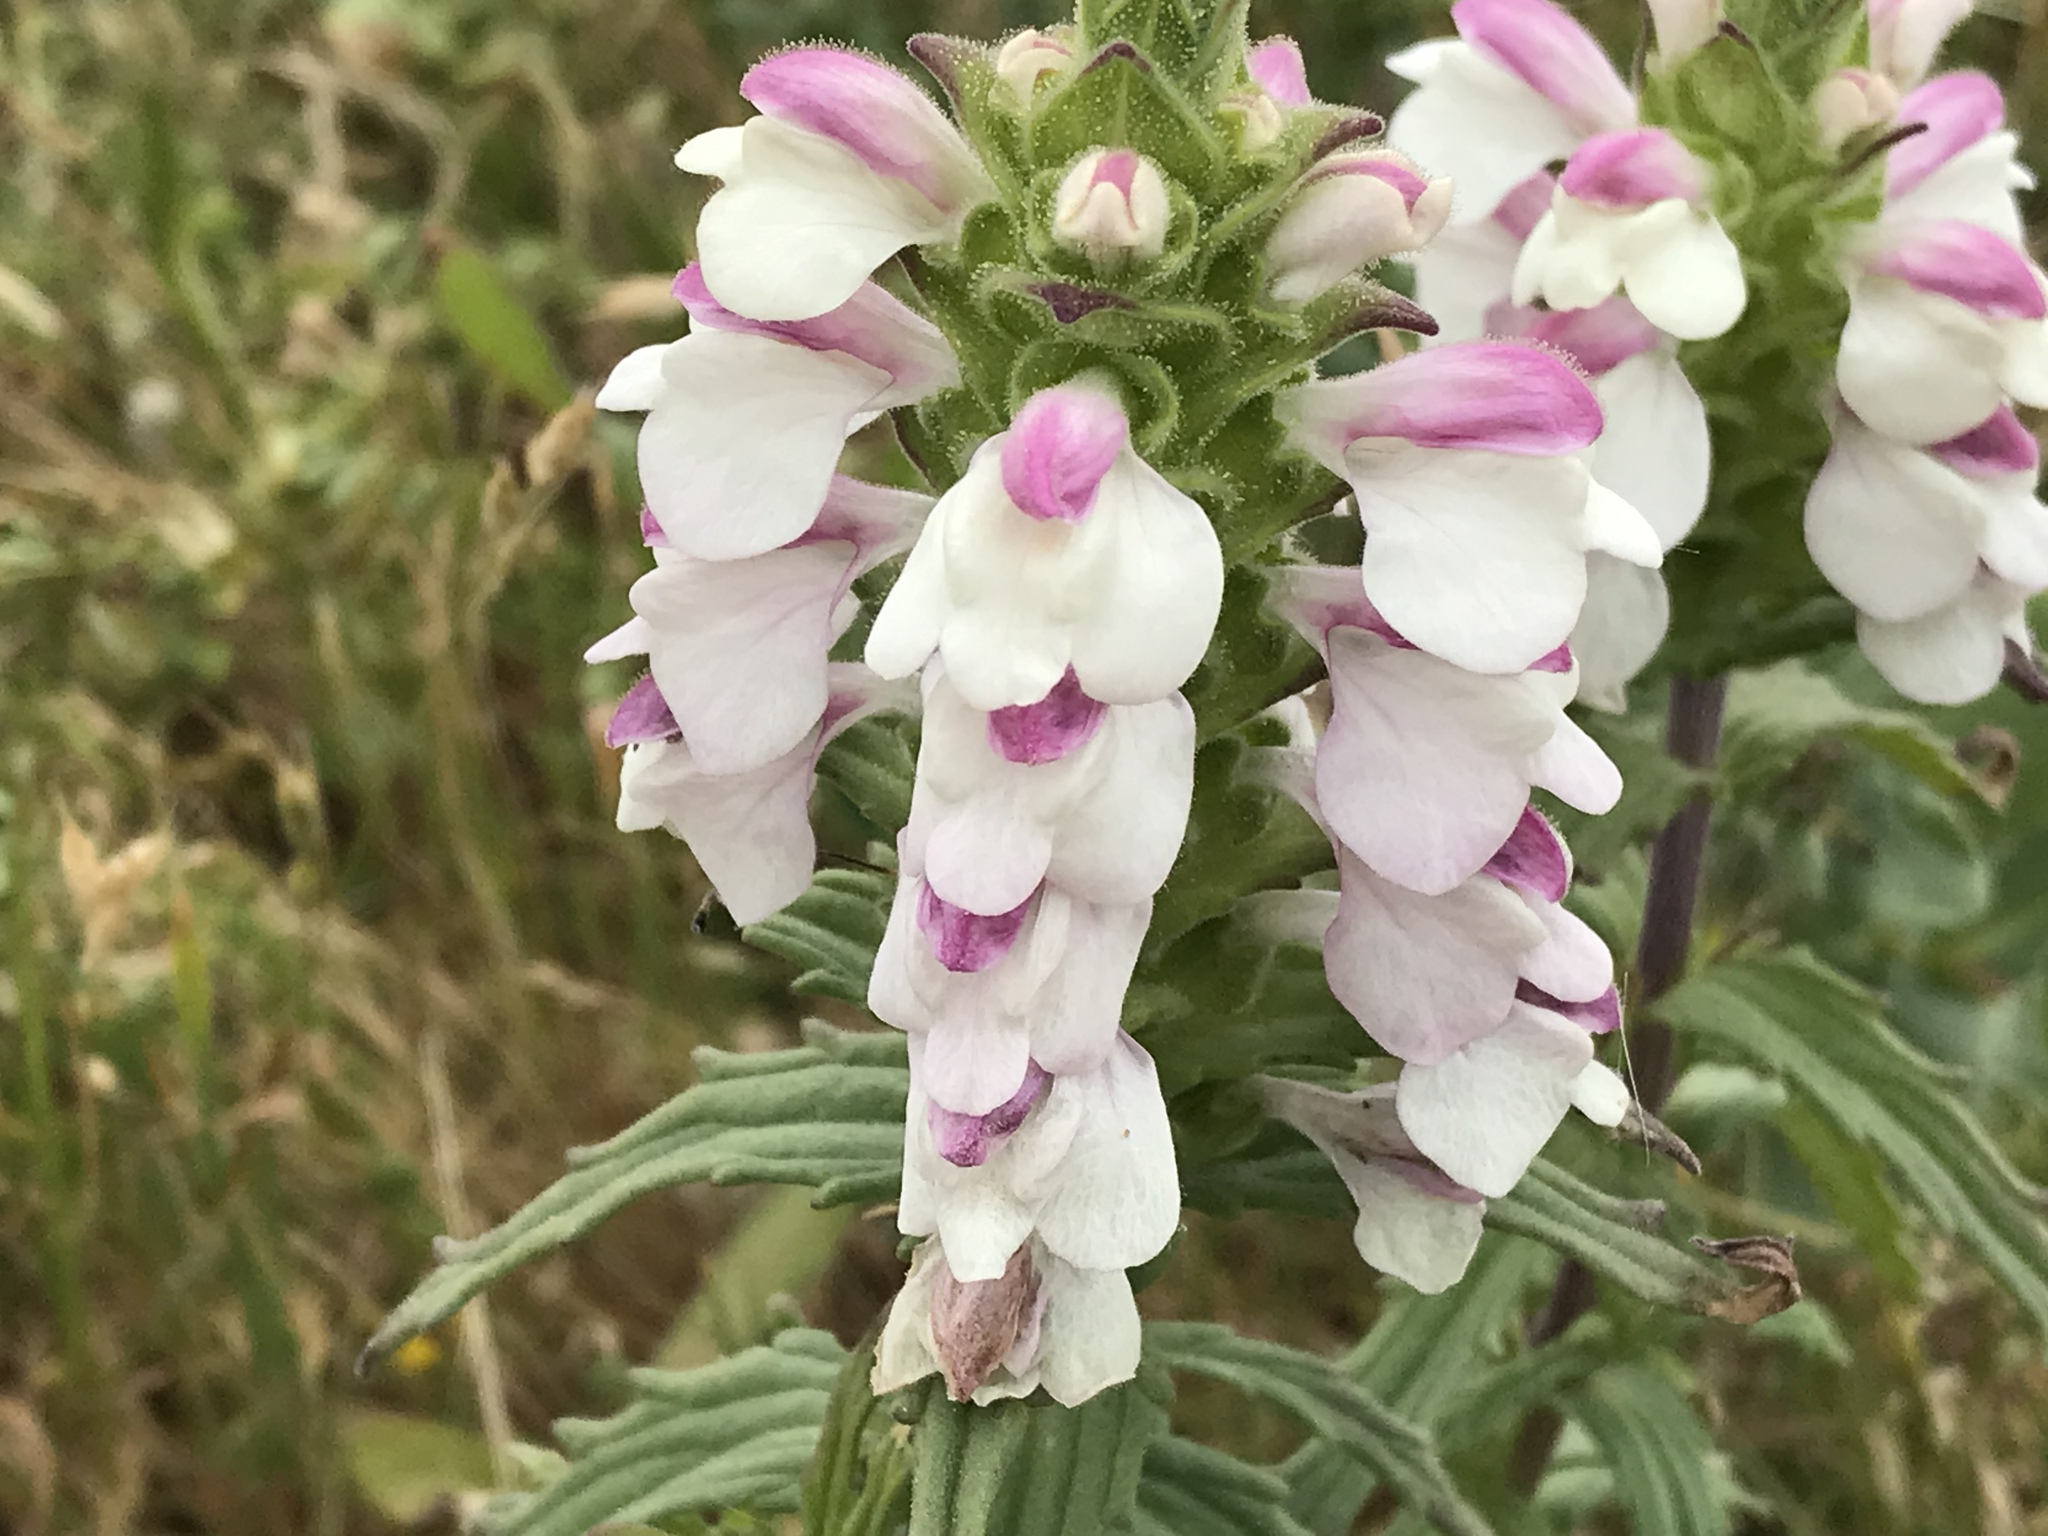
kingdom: Plantae
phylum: Tracheophyta
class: Magnoliopsida
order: Lamiales
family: Orobanchaceae
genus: Bellardia
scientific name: Bellardia trixago
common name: Mediterranean lineseed
